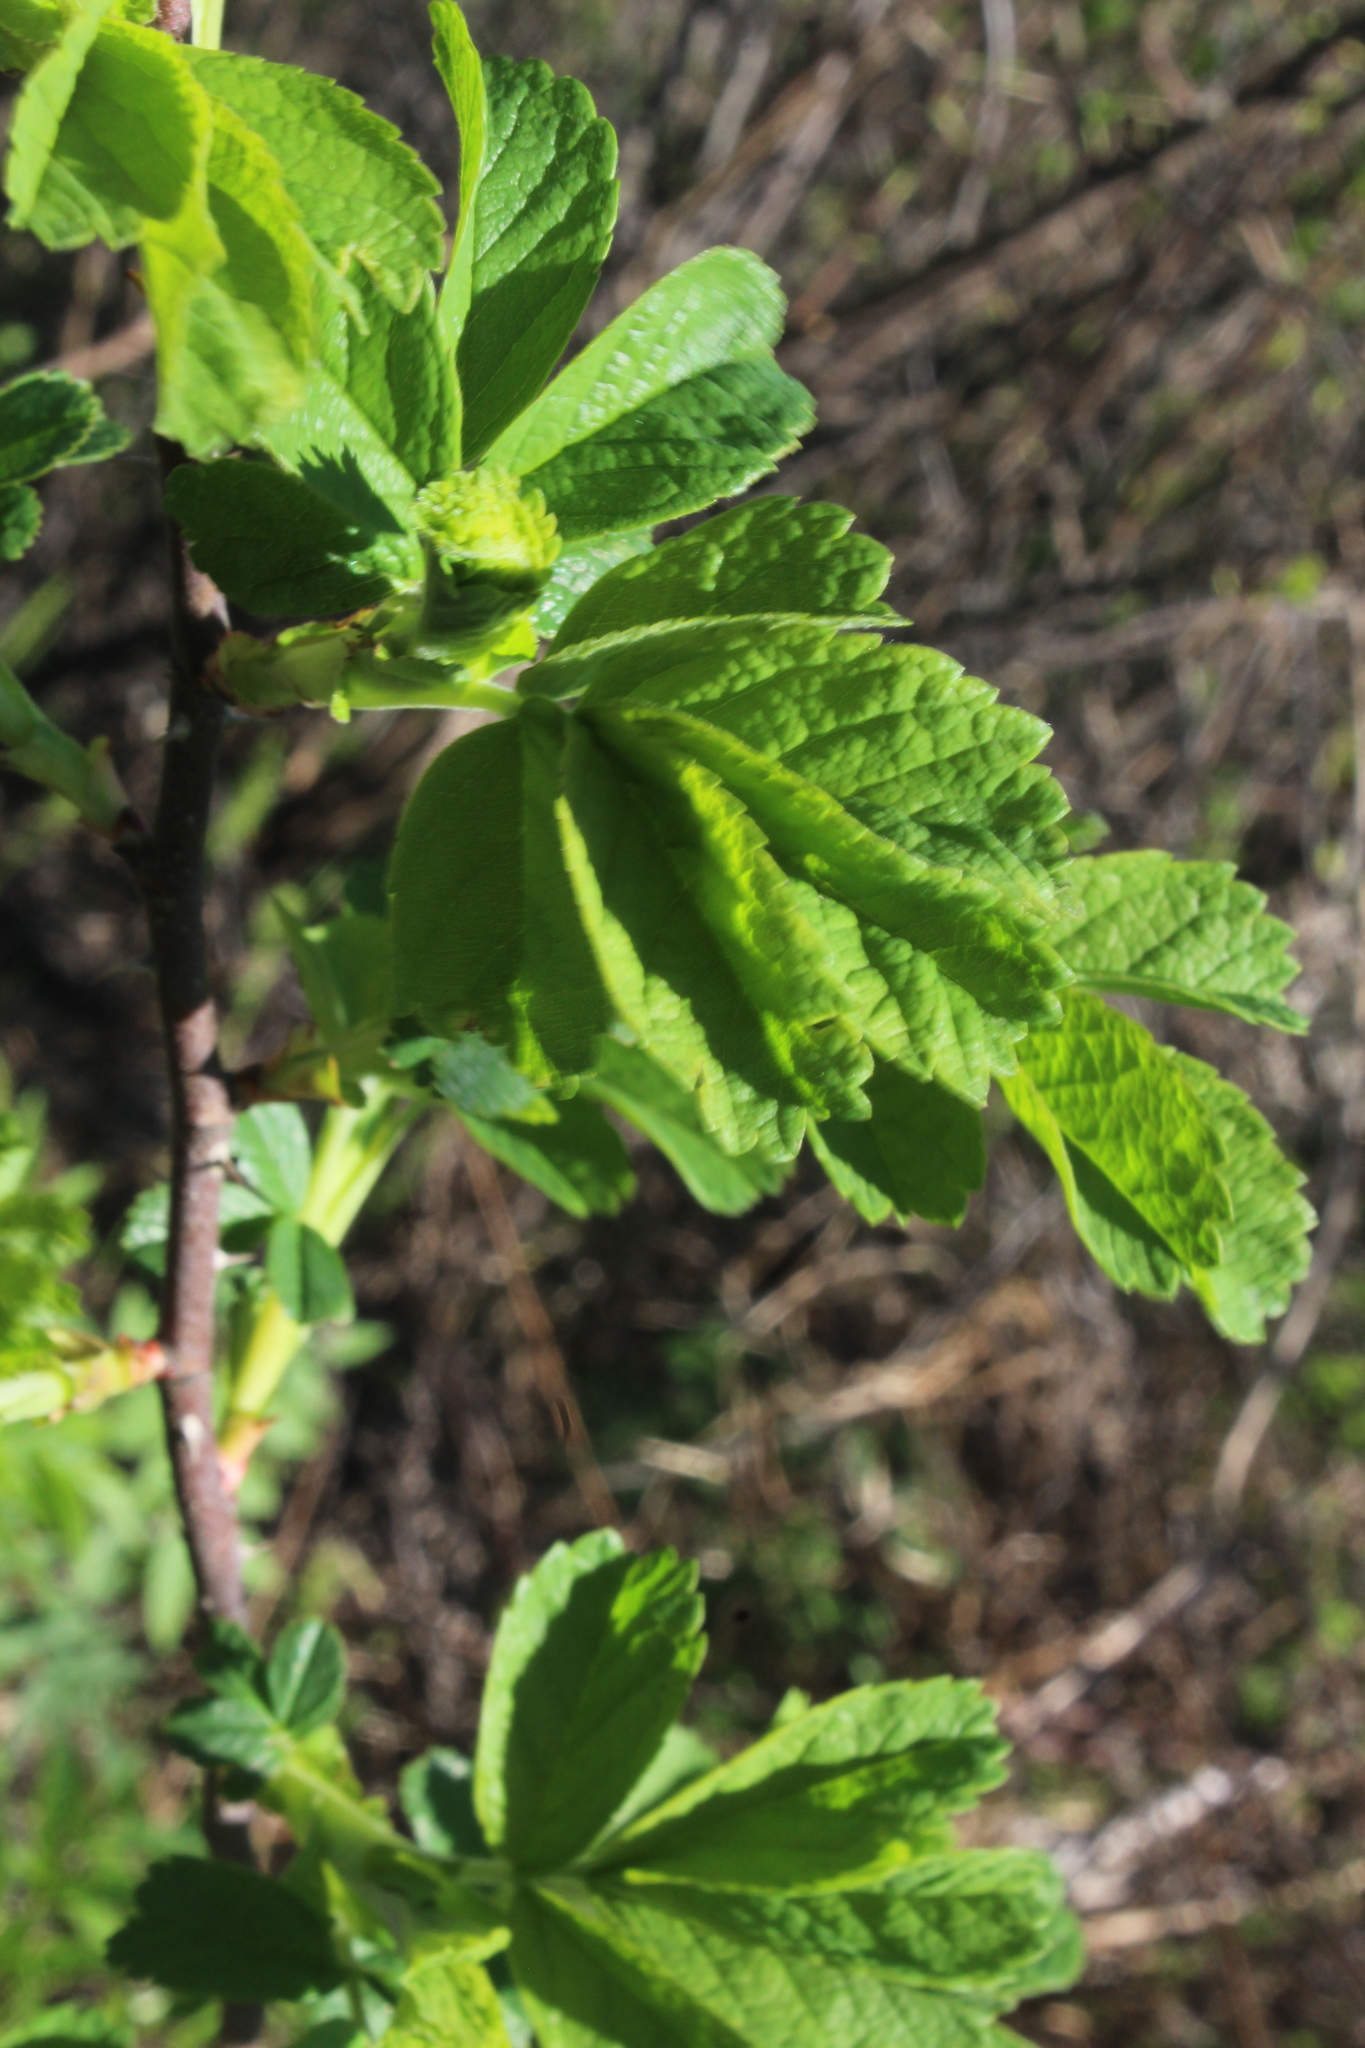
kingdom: Plantae
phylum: Tracheophyta
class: Magnoliopsida
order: Rosales
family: Rosaceae
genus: Rosa
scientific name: Rosa majorugosa
